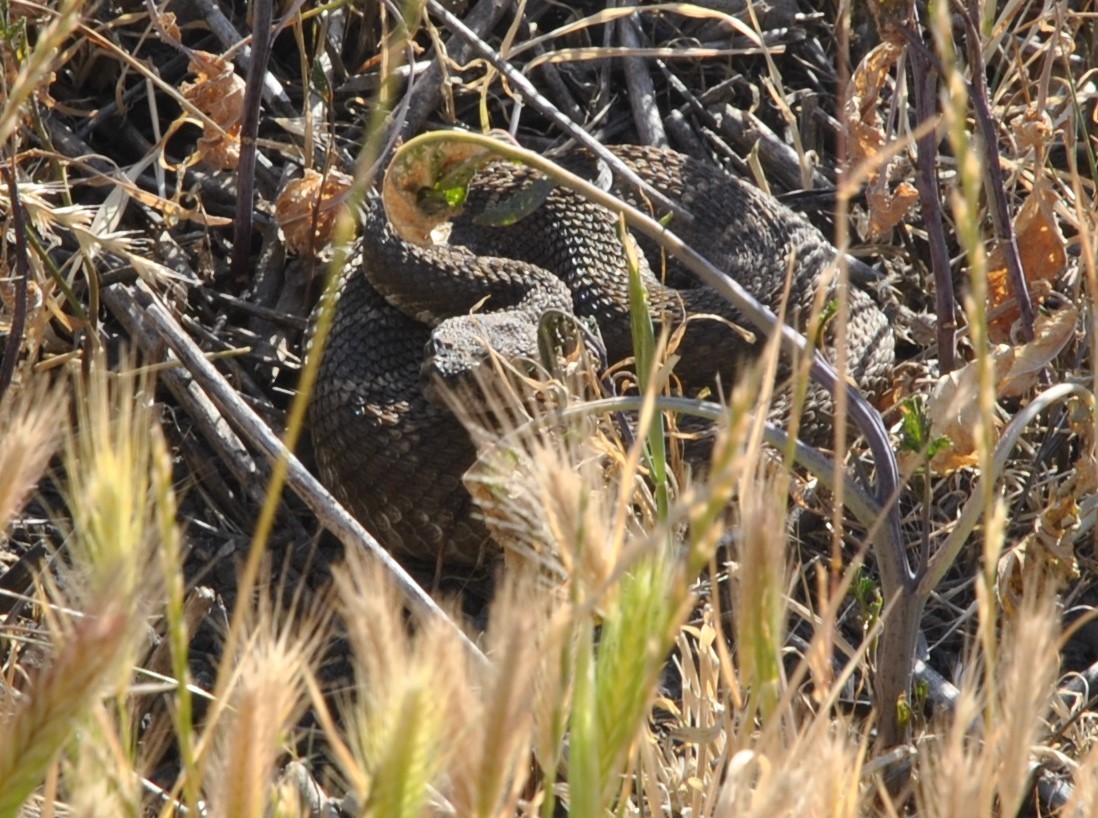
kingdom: Animalia
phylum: Chordata
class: Squamata
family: Viperidae
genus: Crotalus
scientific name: Crotalus oreganus
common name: Abyssus
